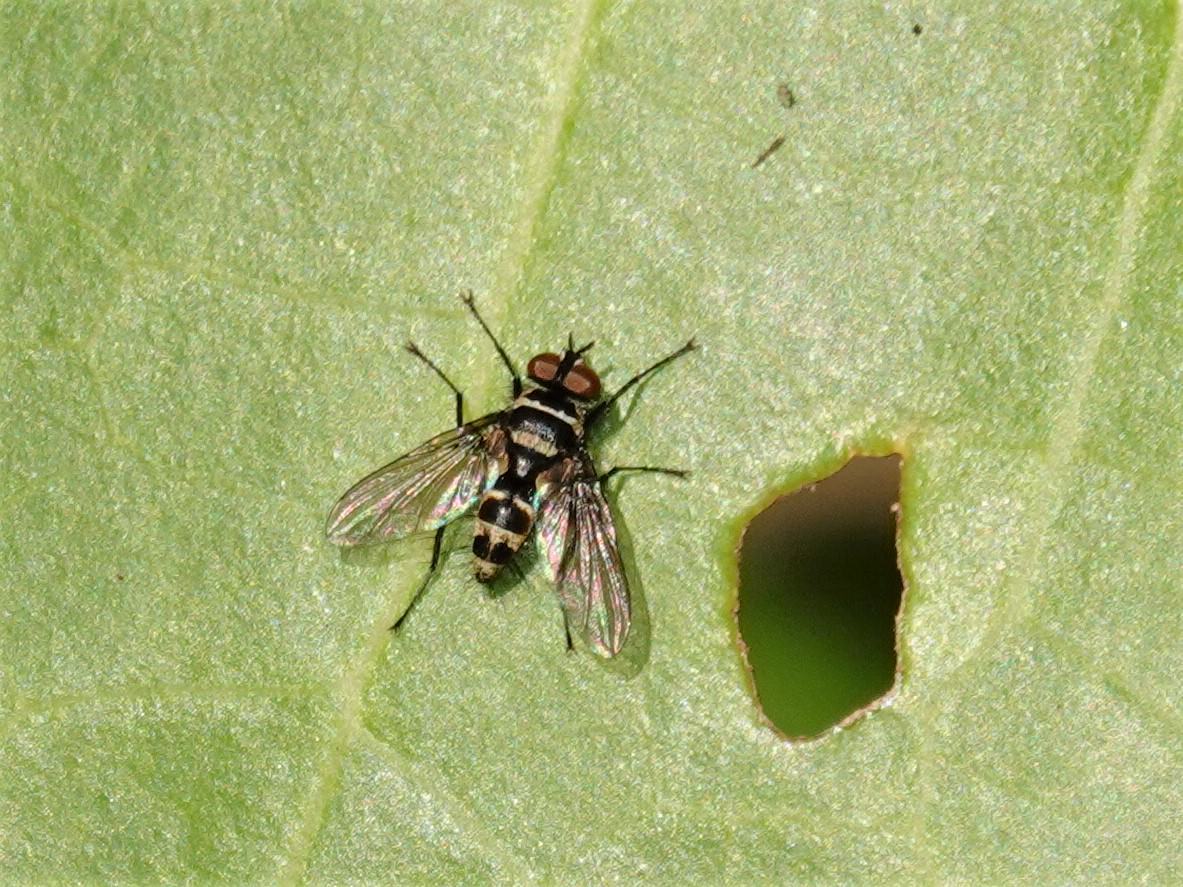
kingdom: Animalia
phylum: Arthropoda
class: Insecta
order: Diptera
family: Tachinidae
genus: Trigonospila
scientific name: Trigonospila brevifacies
